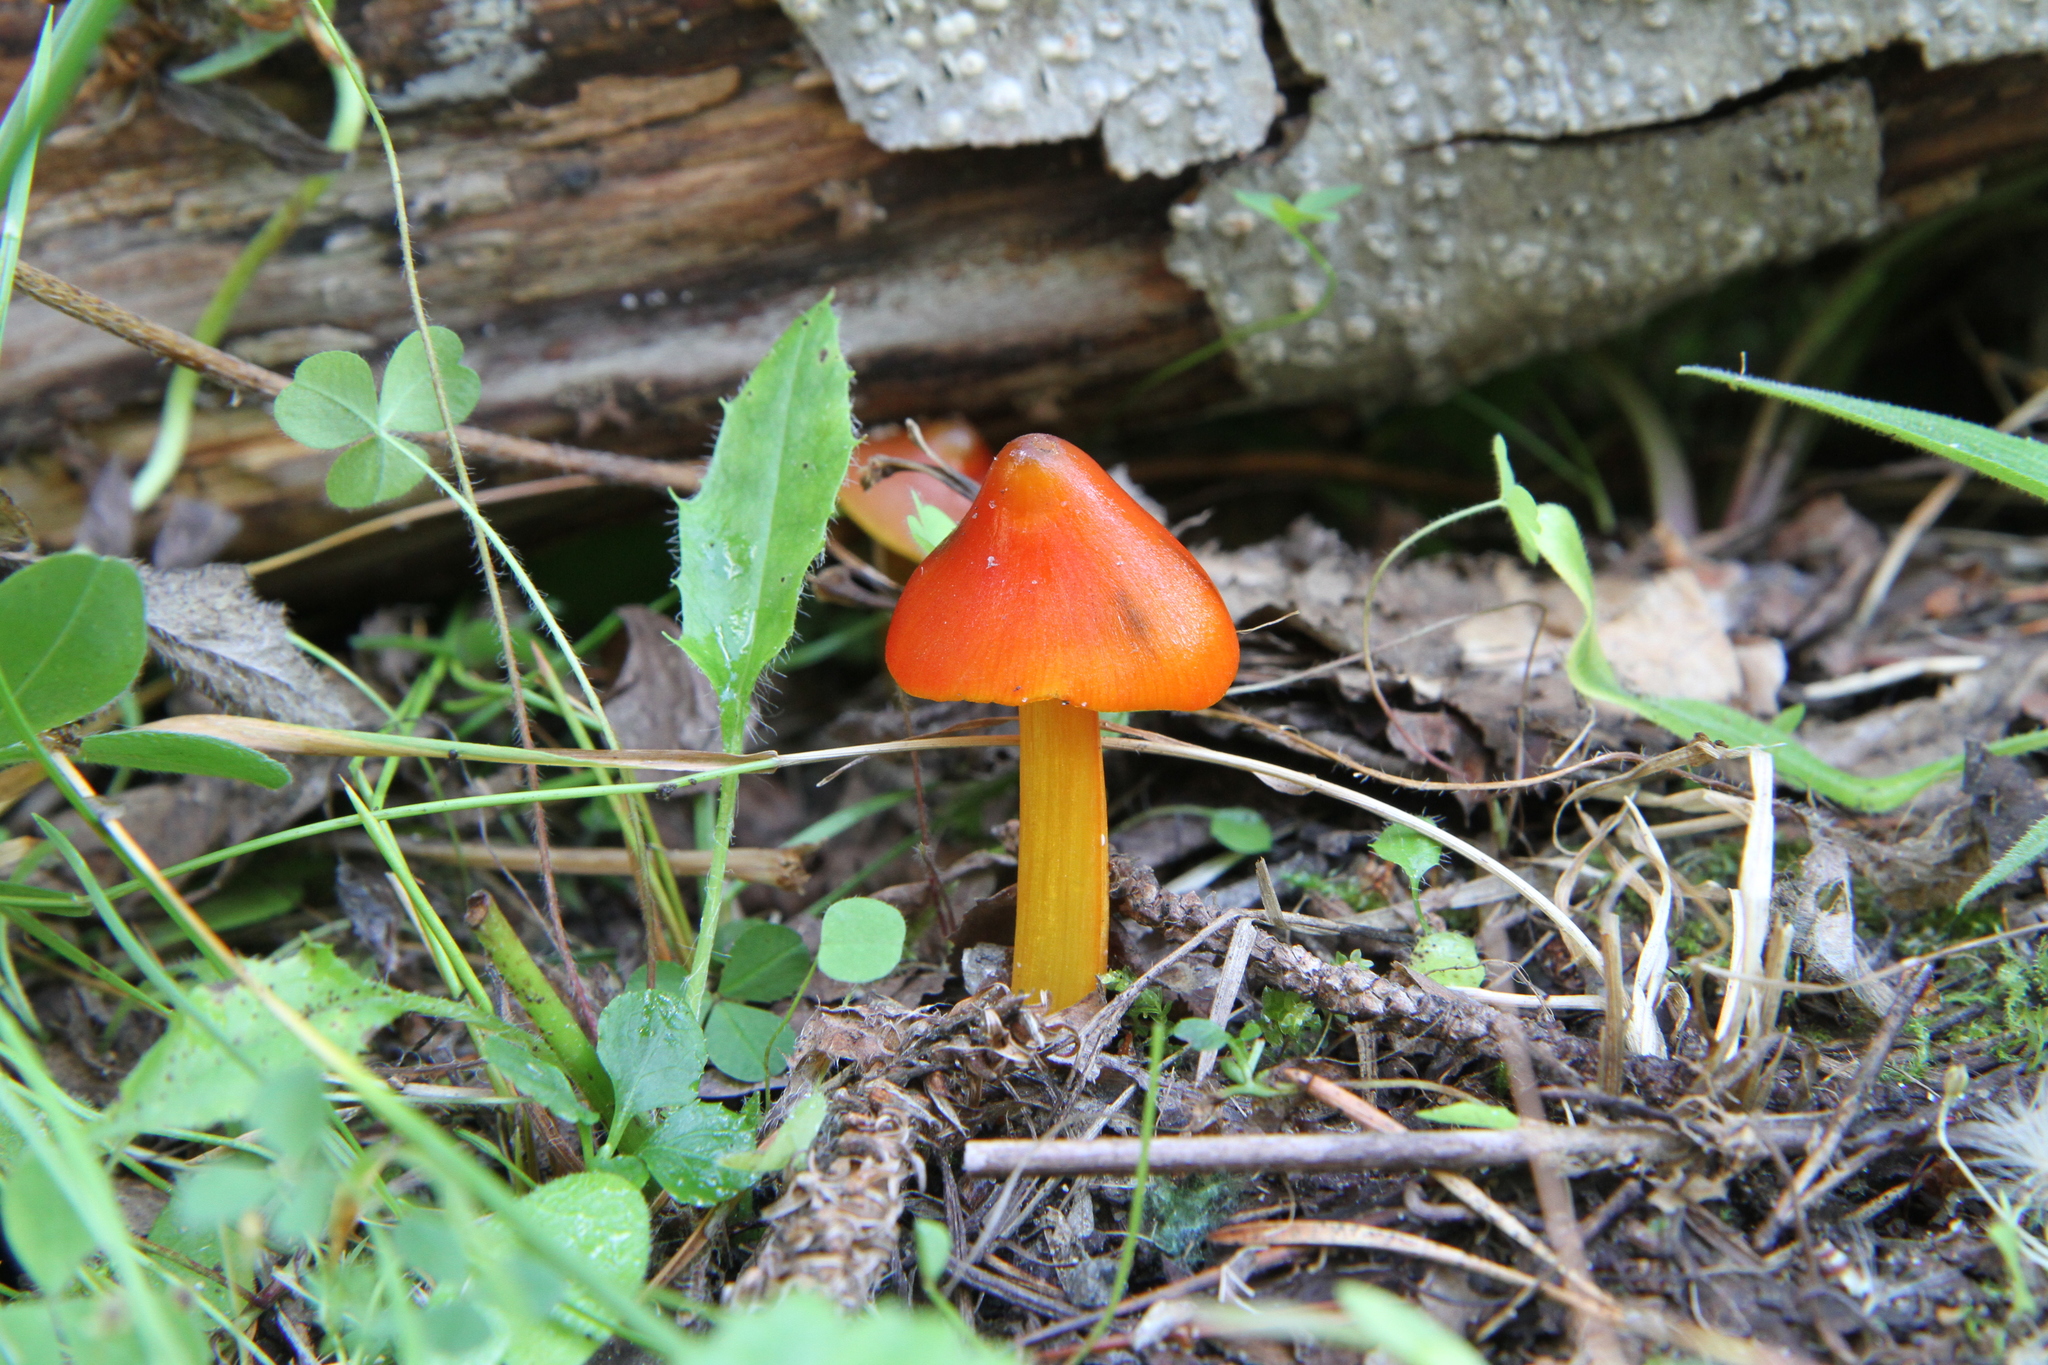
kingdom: Fungi
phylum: Basidiomycota
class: Agaricomycetes
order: Agaricales
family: Hygrophoraceae
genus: Hygrocybe
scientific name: Hygrocybe conica
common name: Blackening wax-cap
